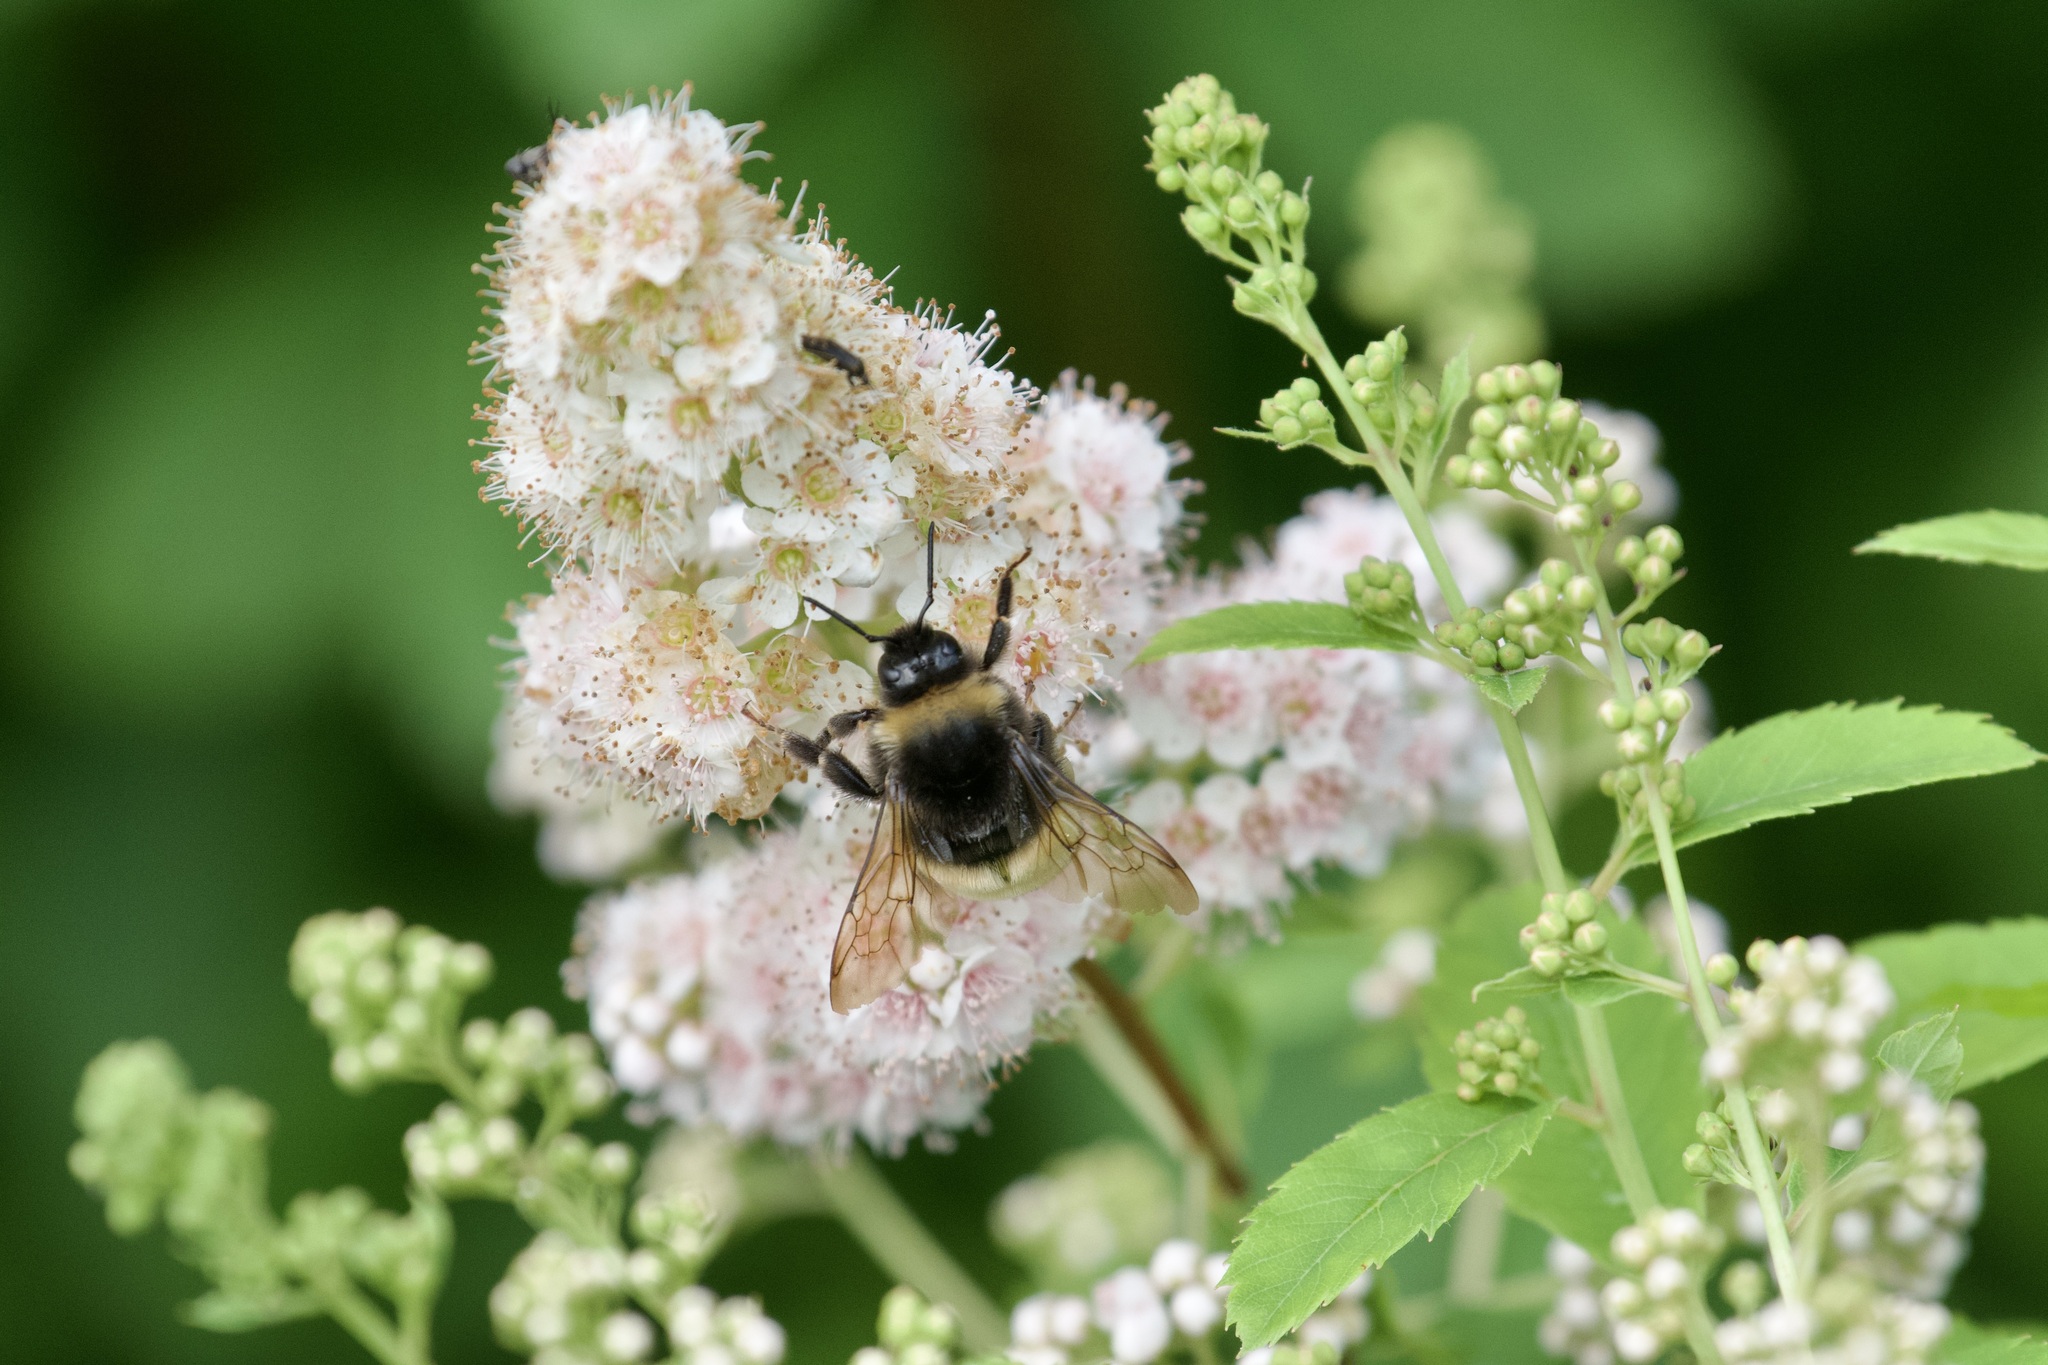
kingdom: Animalia
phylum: Arthropoda
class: Insecta
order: Hymenoptera
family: Apidae
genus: Bombus
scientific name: Bombus terricola
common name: Yellow-banded bumble bee
